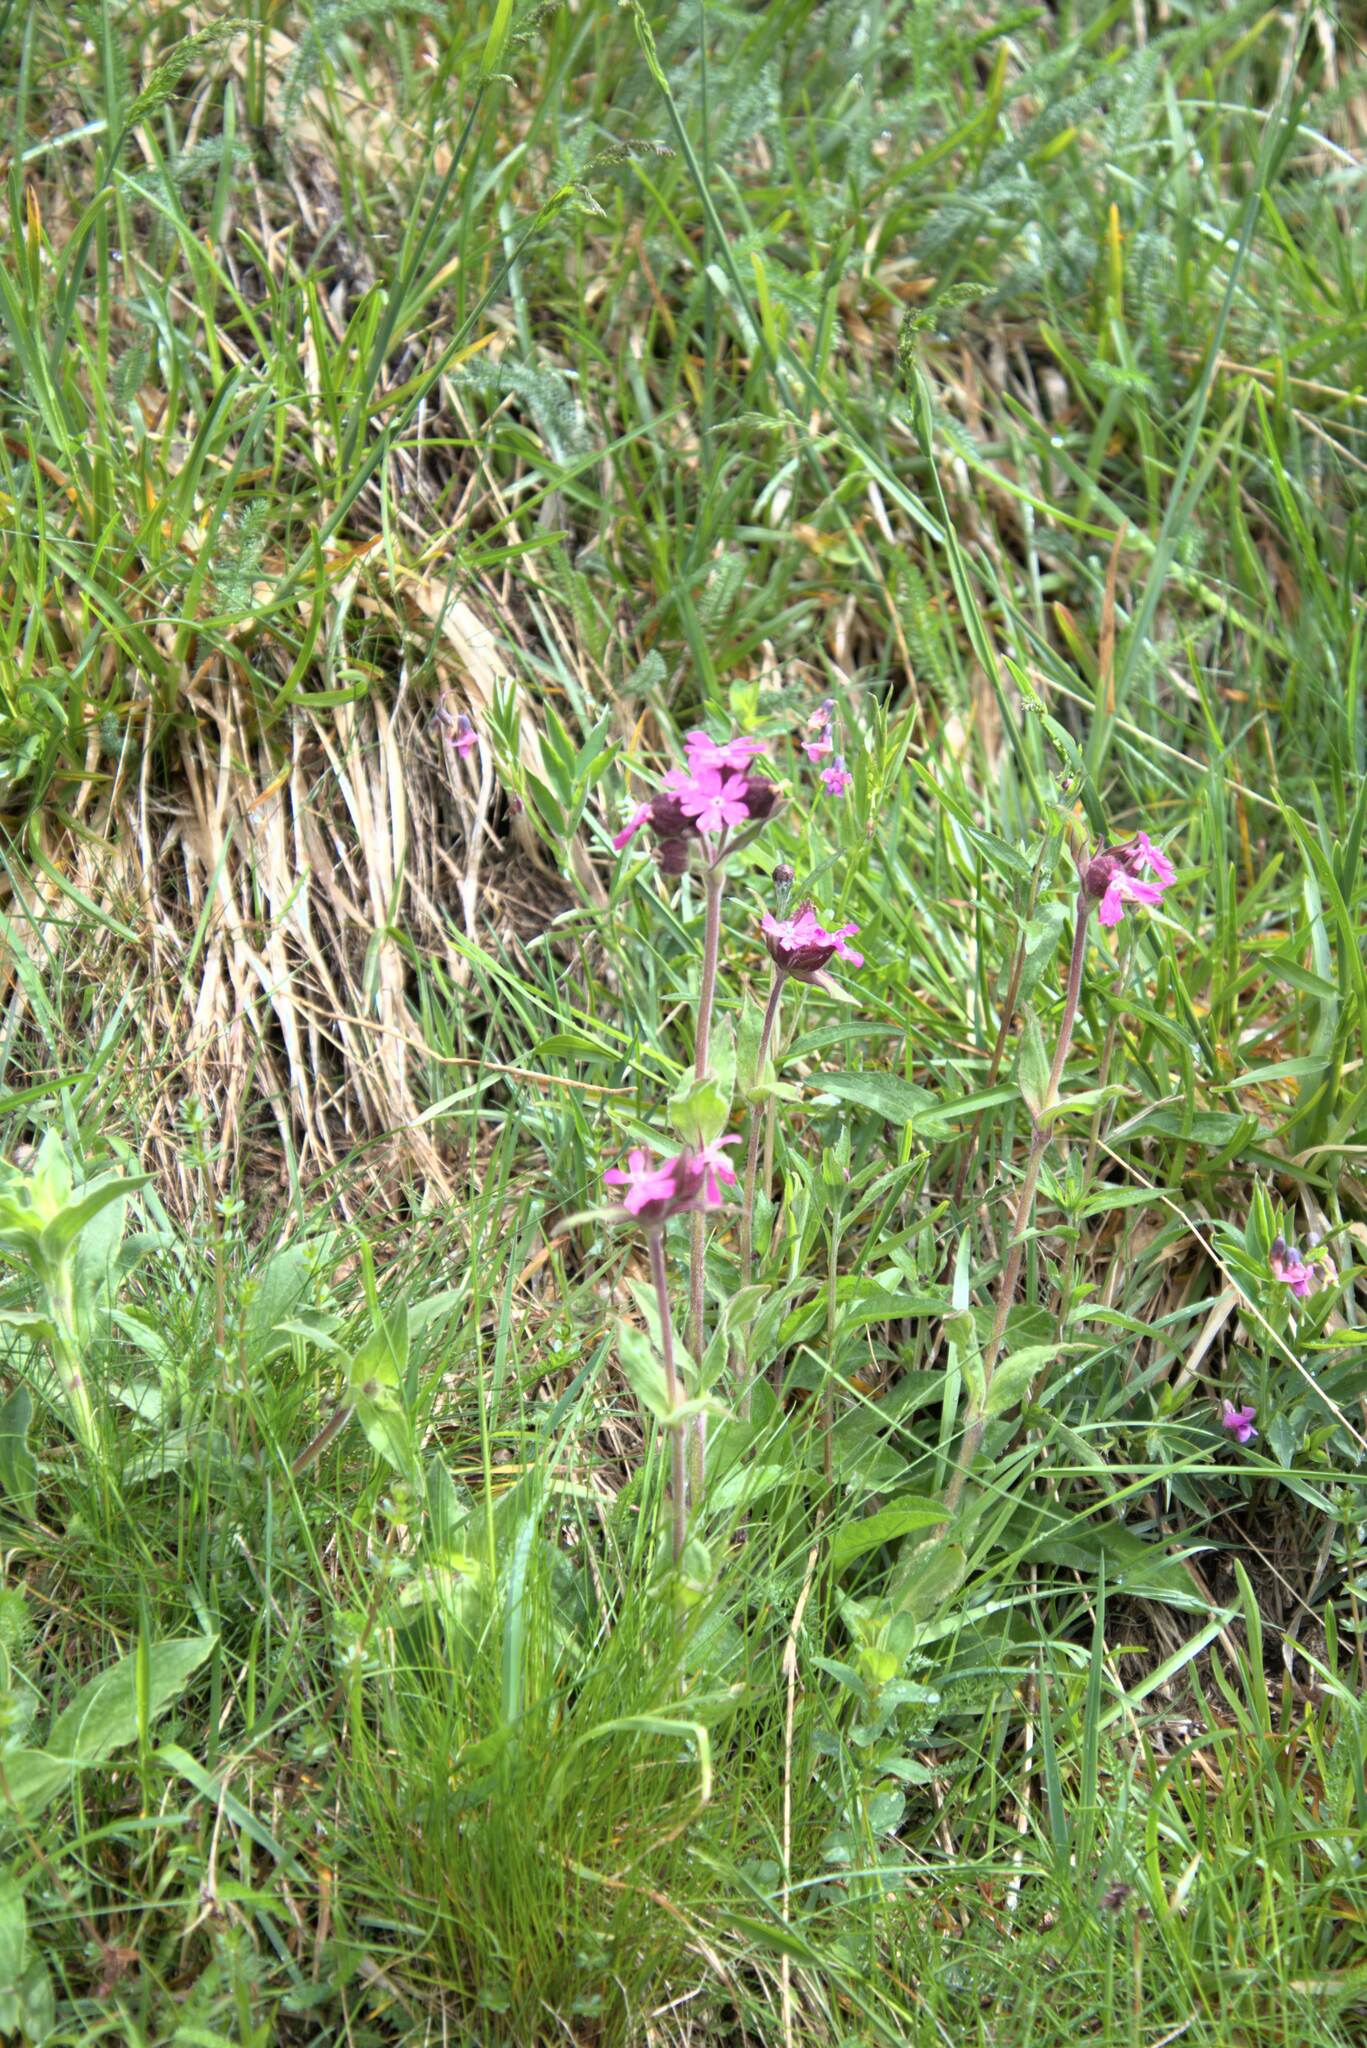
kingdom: Plantae
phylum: Tracheophyta
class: Magnoliopsida
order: Caryophyllales
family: Caryophyllaceae
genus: Silene
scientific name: Silene dioica
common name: Red campion
